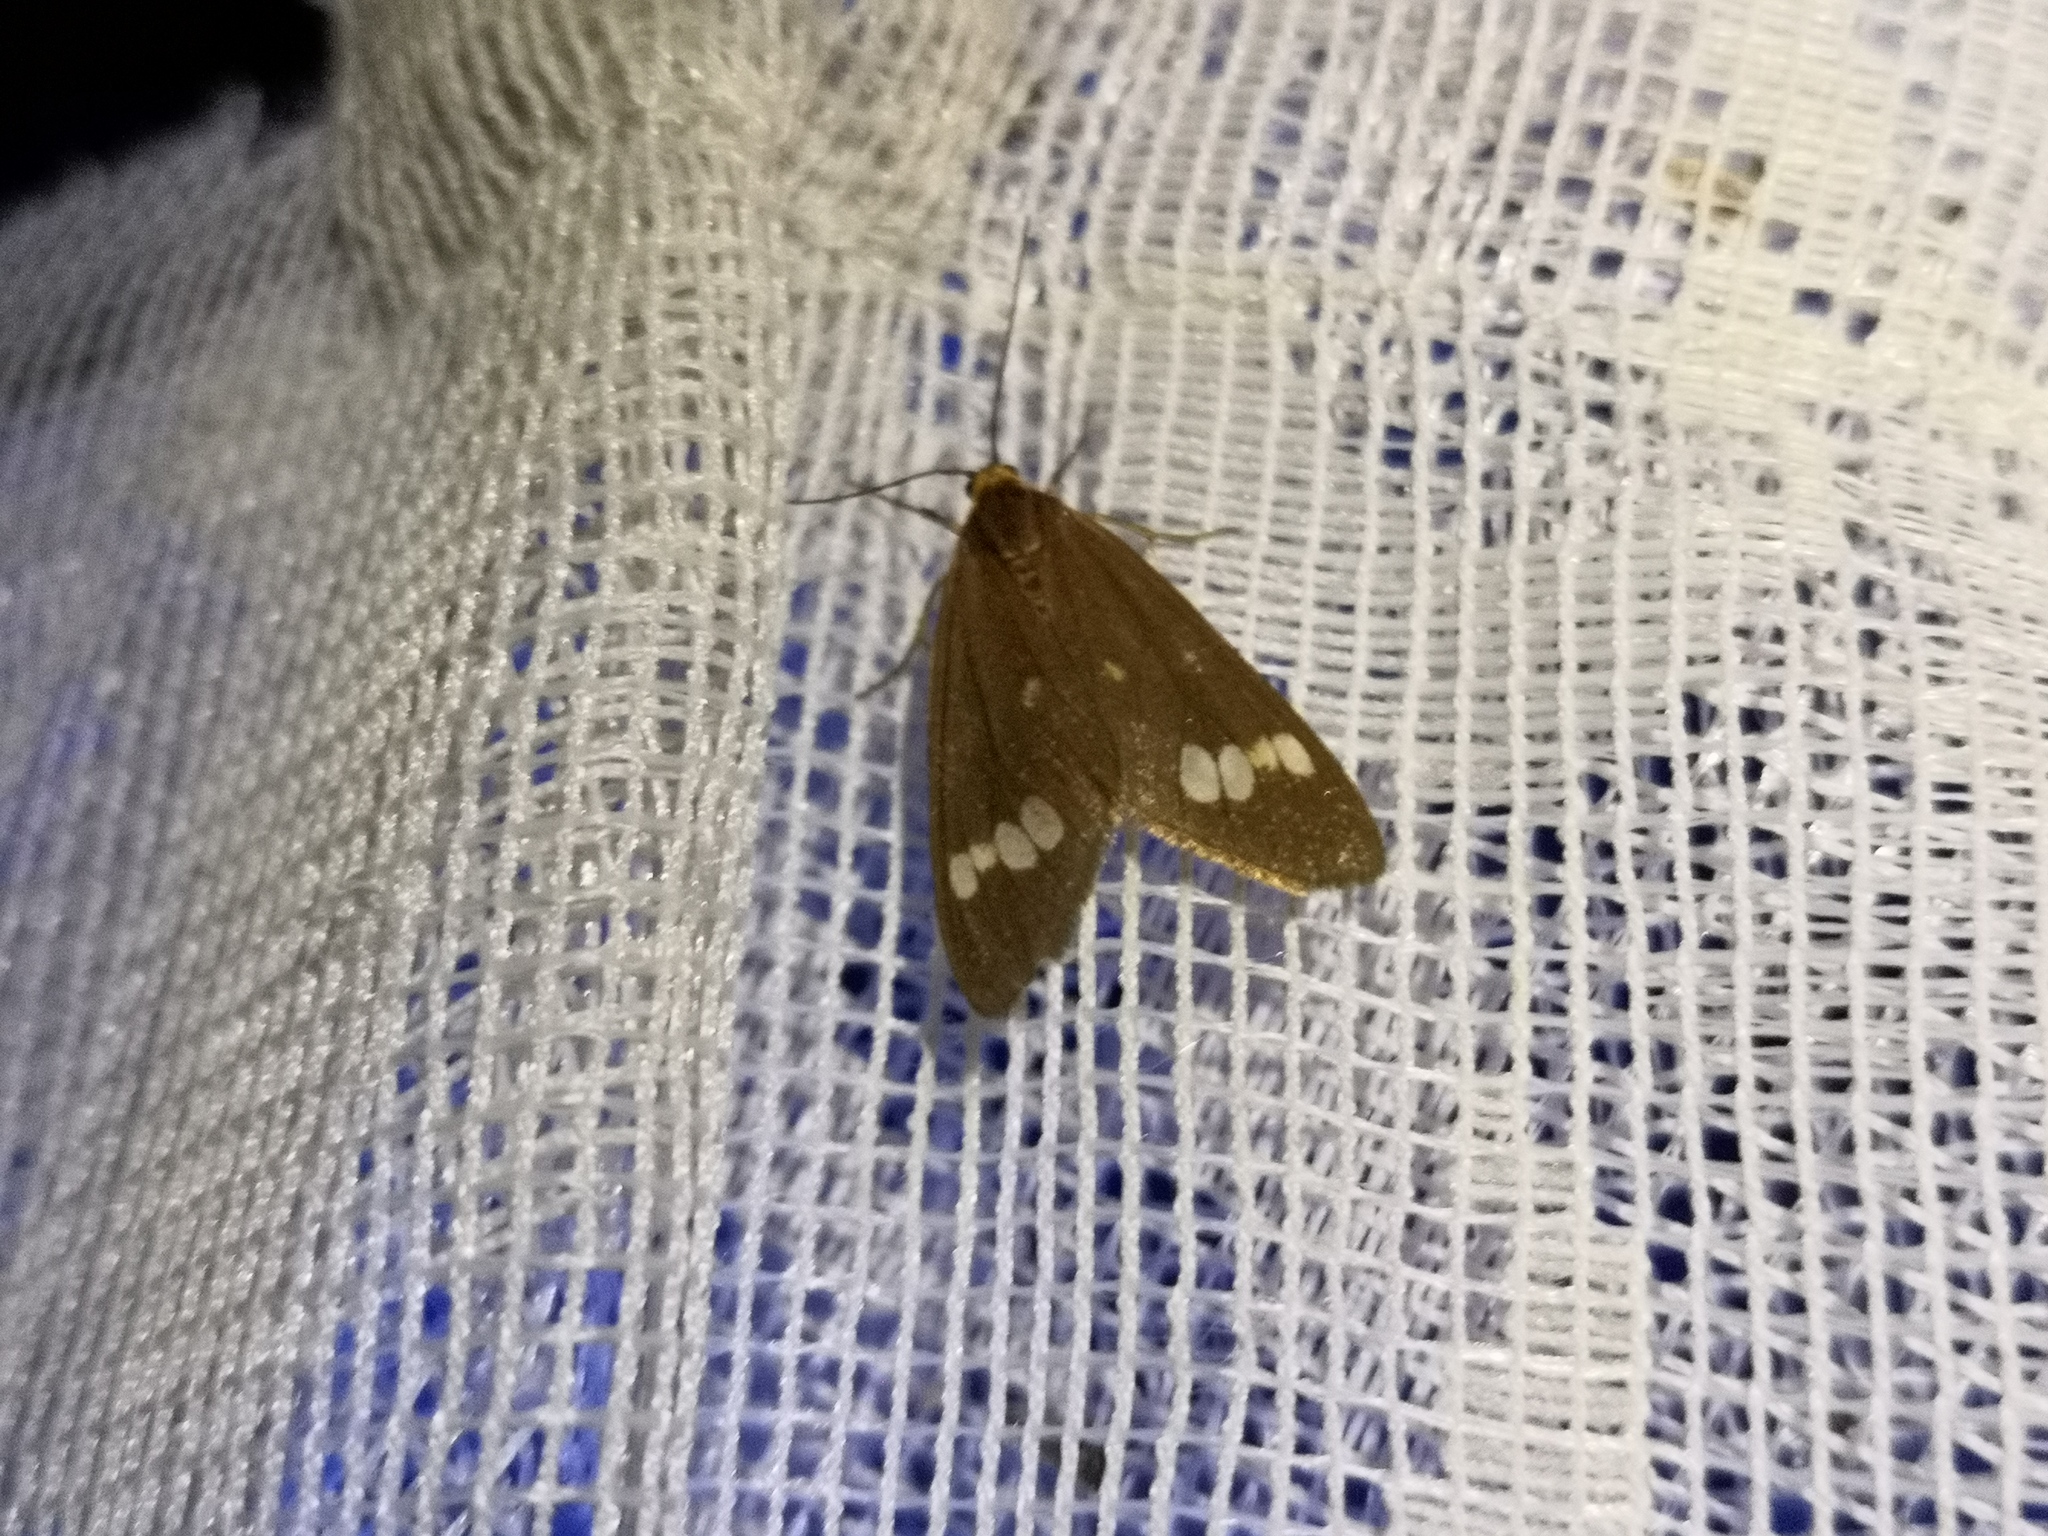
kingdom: Animalia
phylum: Arthropoda
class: Insecta
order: Lepidoptera
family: Erebidae
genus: Dysauxes
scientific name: Dysauxes ancilla
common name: The handmaid
